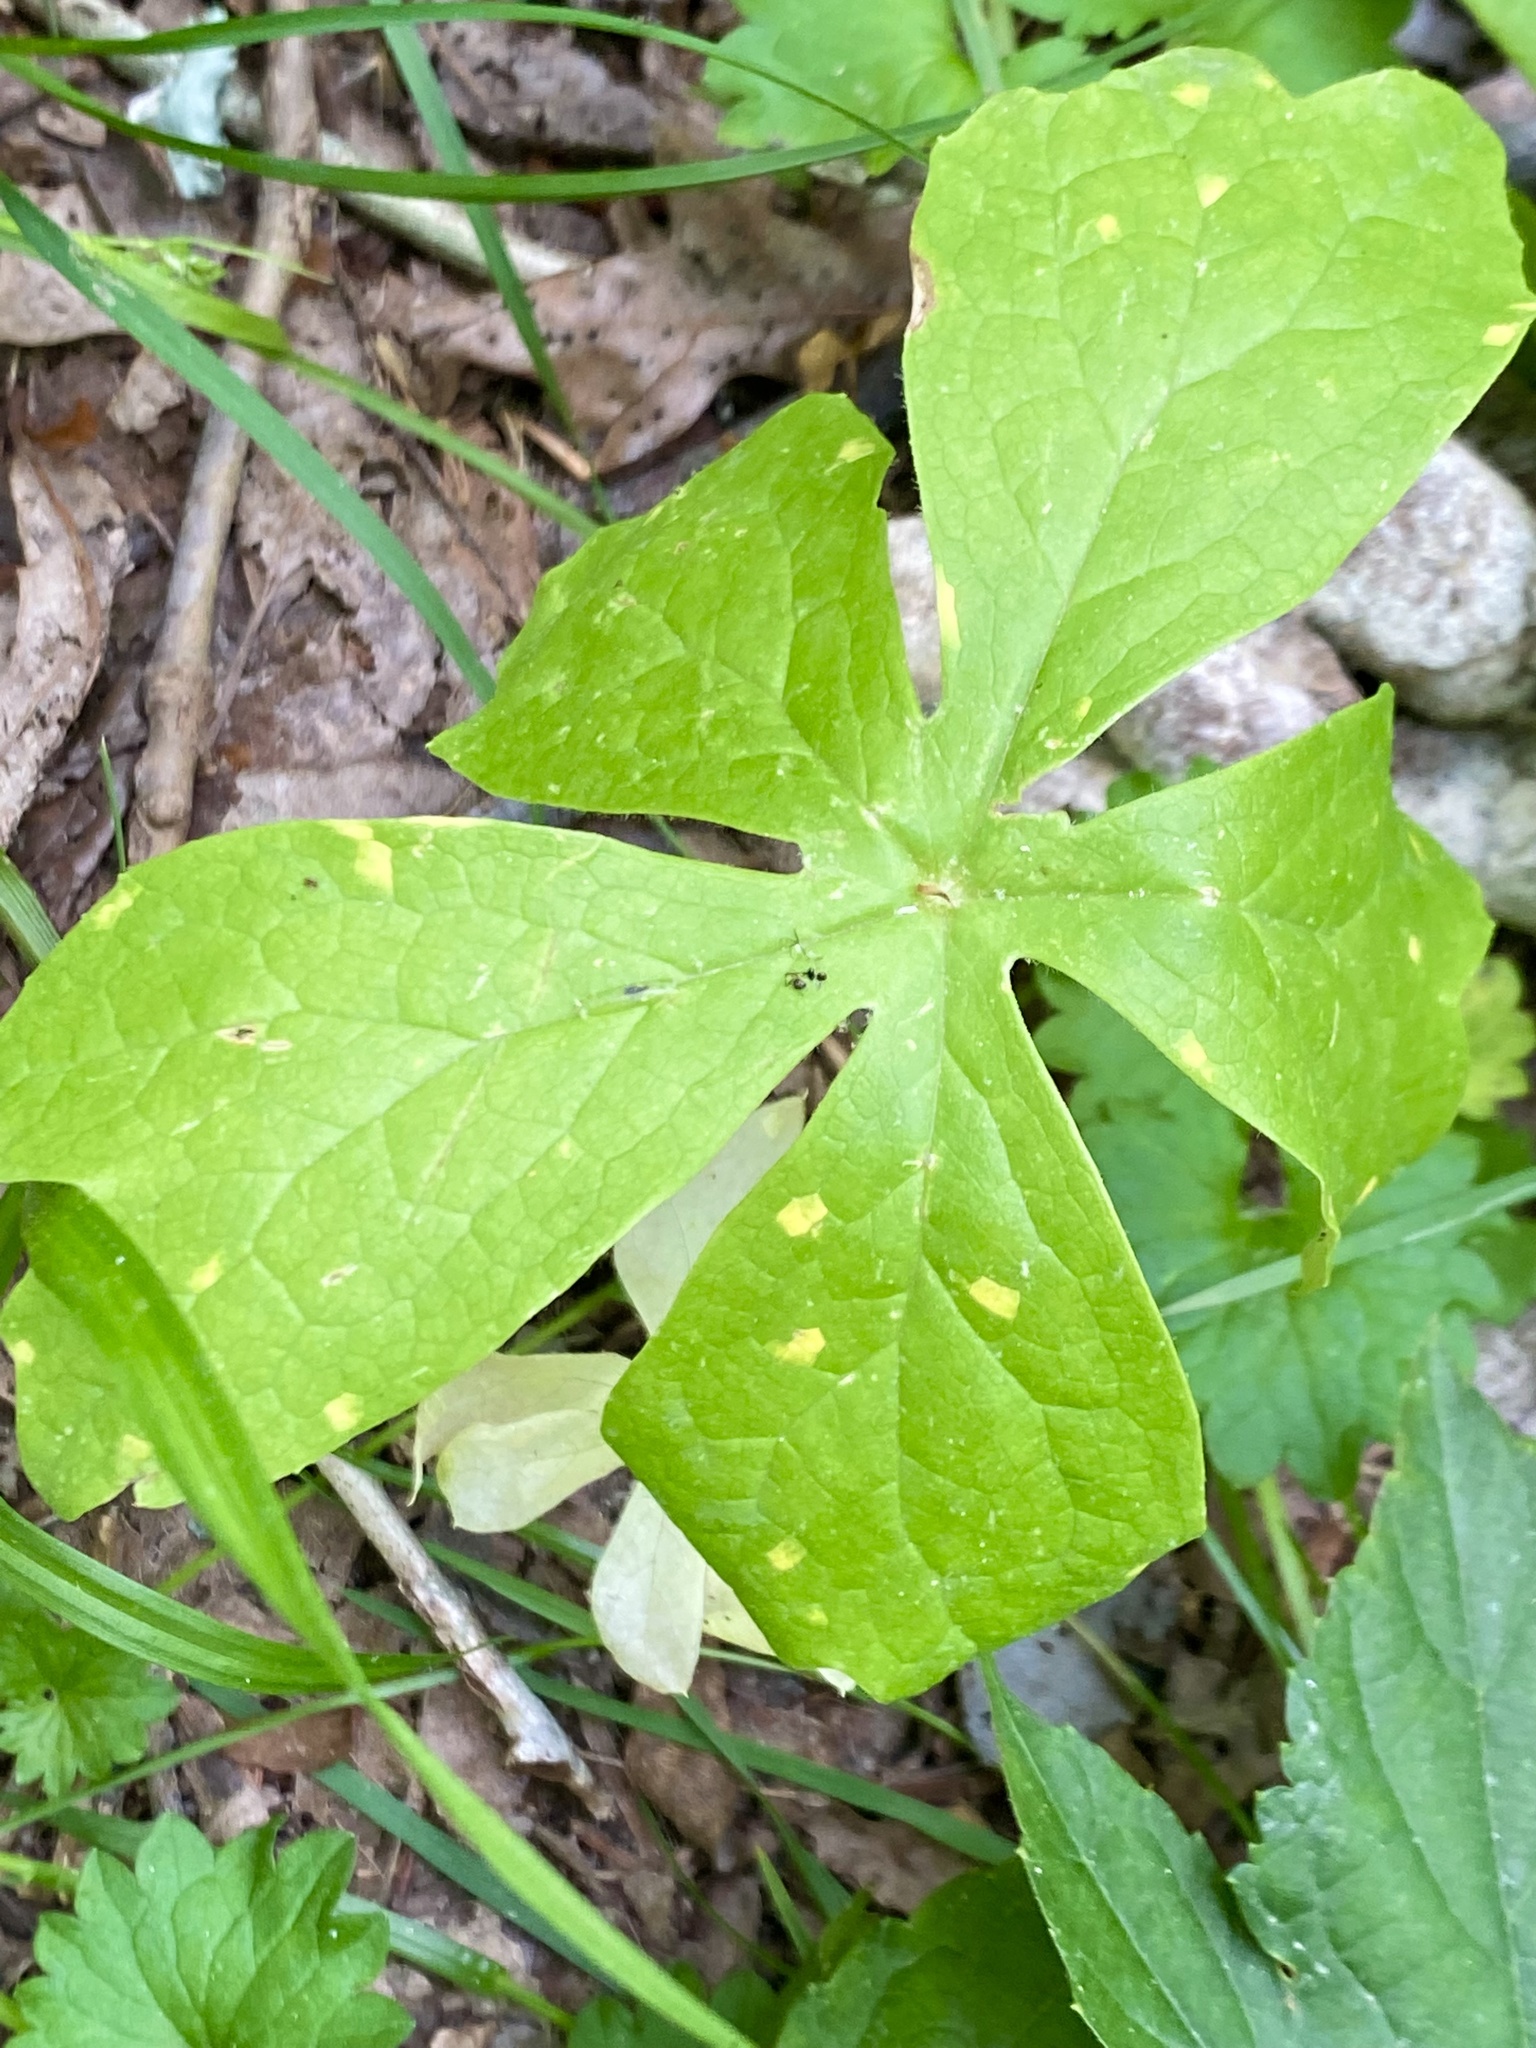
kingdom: Fungi
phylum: Basidiomycota
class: Pucciniomycetes
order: Pucciniales
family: Pucciniaceae
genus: Puccinia
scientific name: Puccinia podophylli
